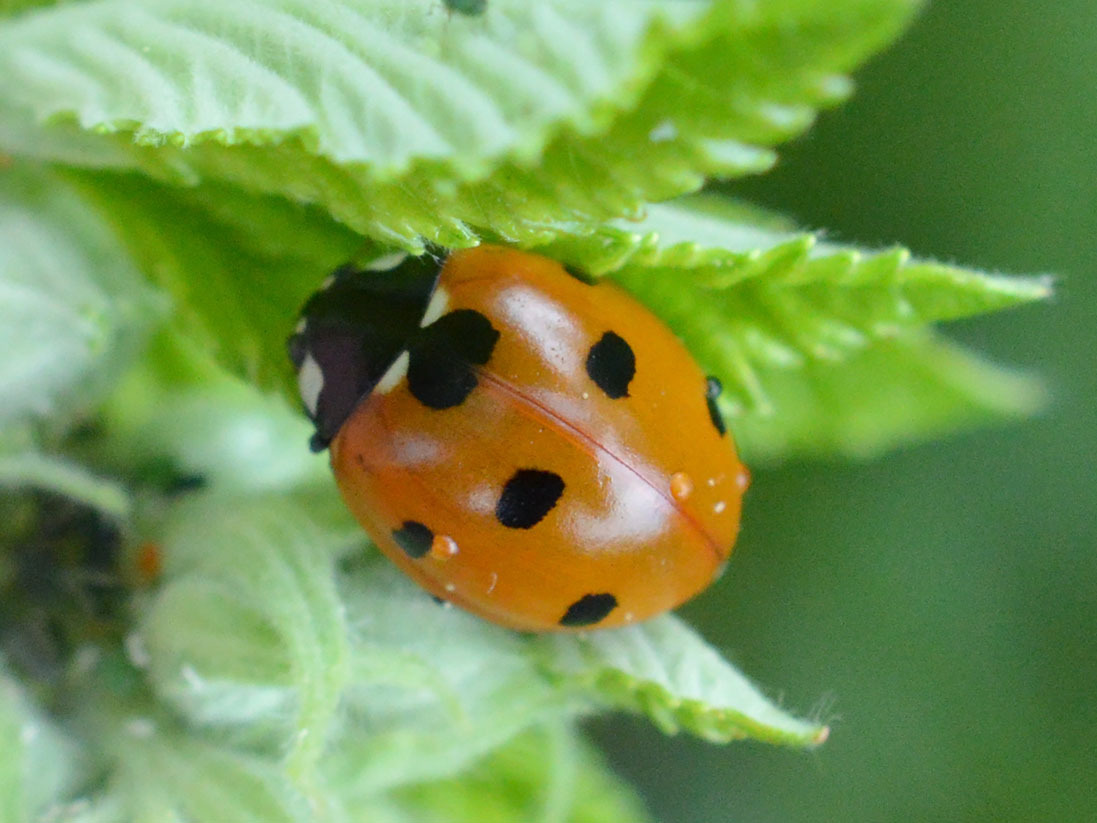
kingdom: Animalia
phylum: Arthropoda
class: Insecta
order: Coleoptera
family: Coccinellidae
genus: Coccinella
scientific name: Coccinella septempunctata
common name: Sevenspotted lady beetle
